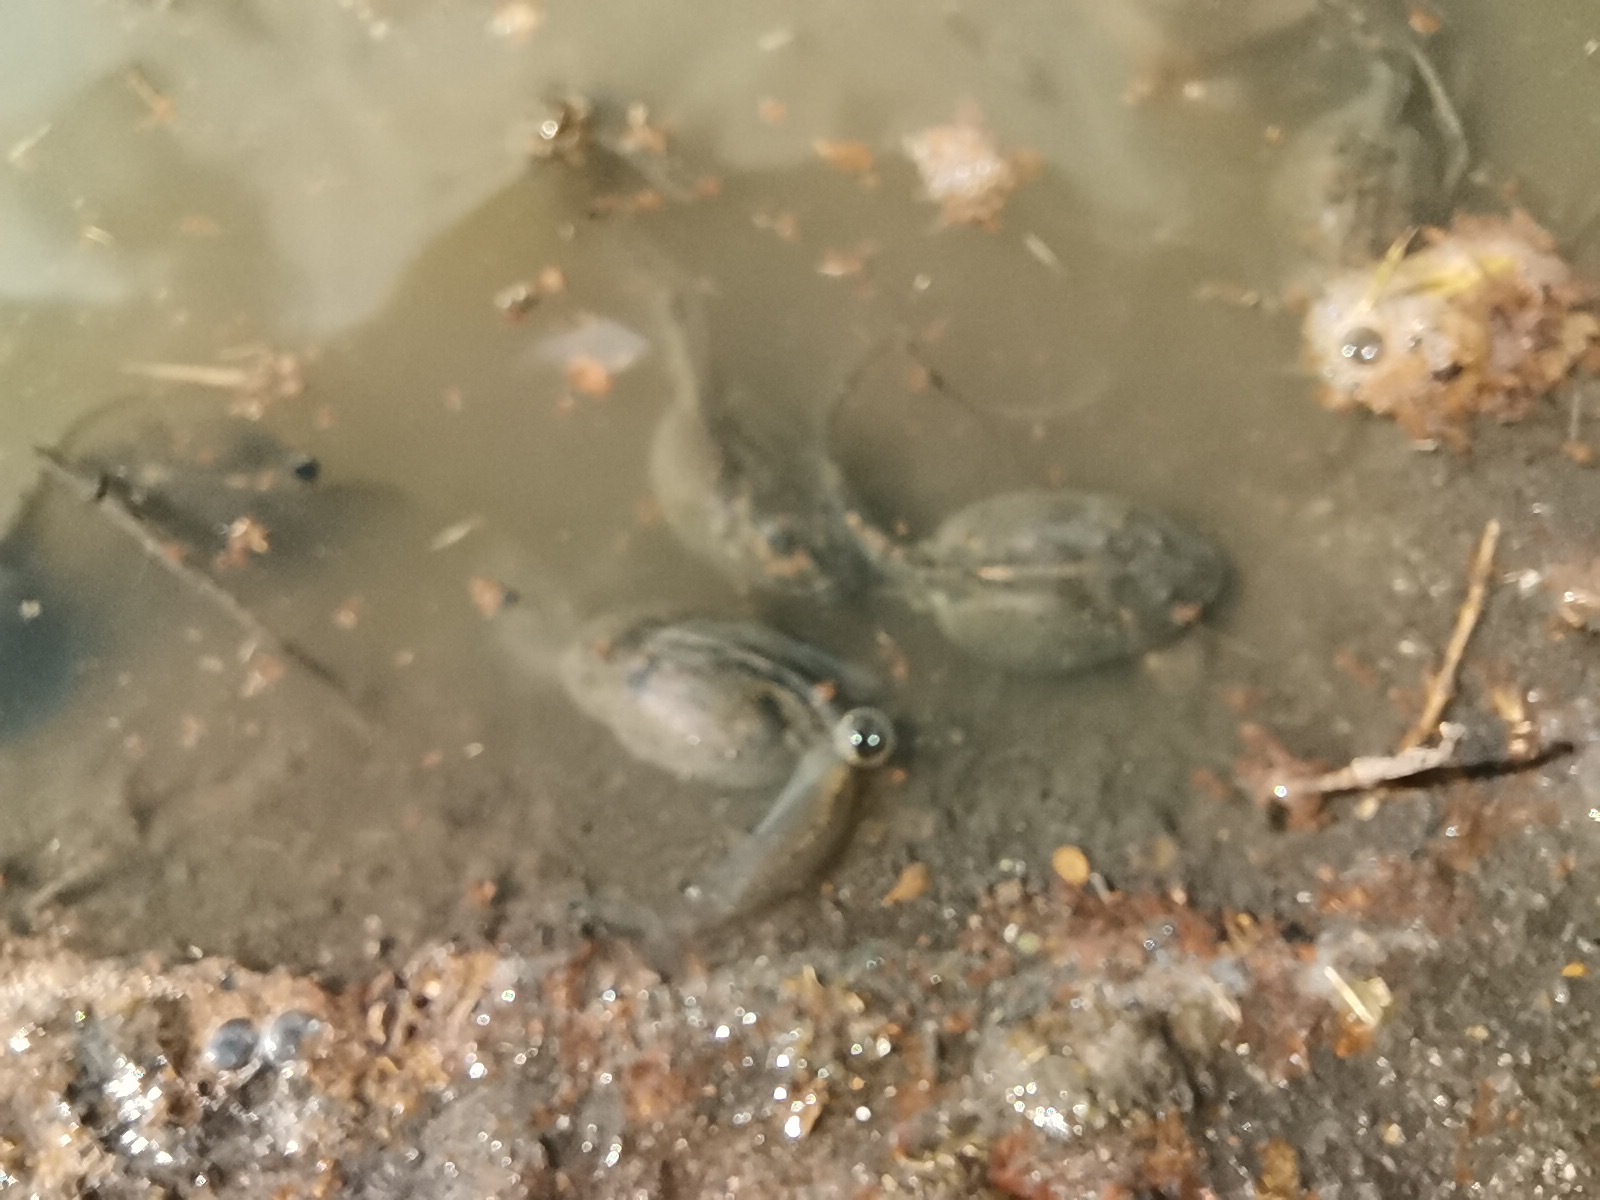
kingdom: Animalia
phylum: Chordata
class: Amphibia
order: Anura
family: Scaphiopodidae
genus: Spea
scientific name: Spea multiplicata
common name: Mexican spadefoot
